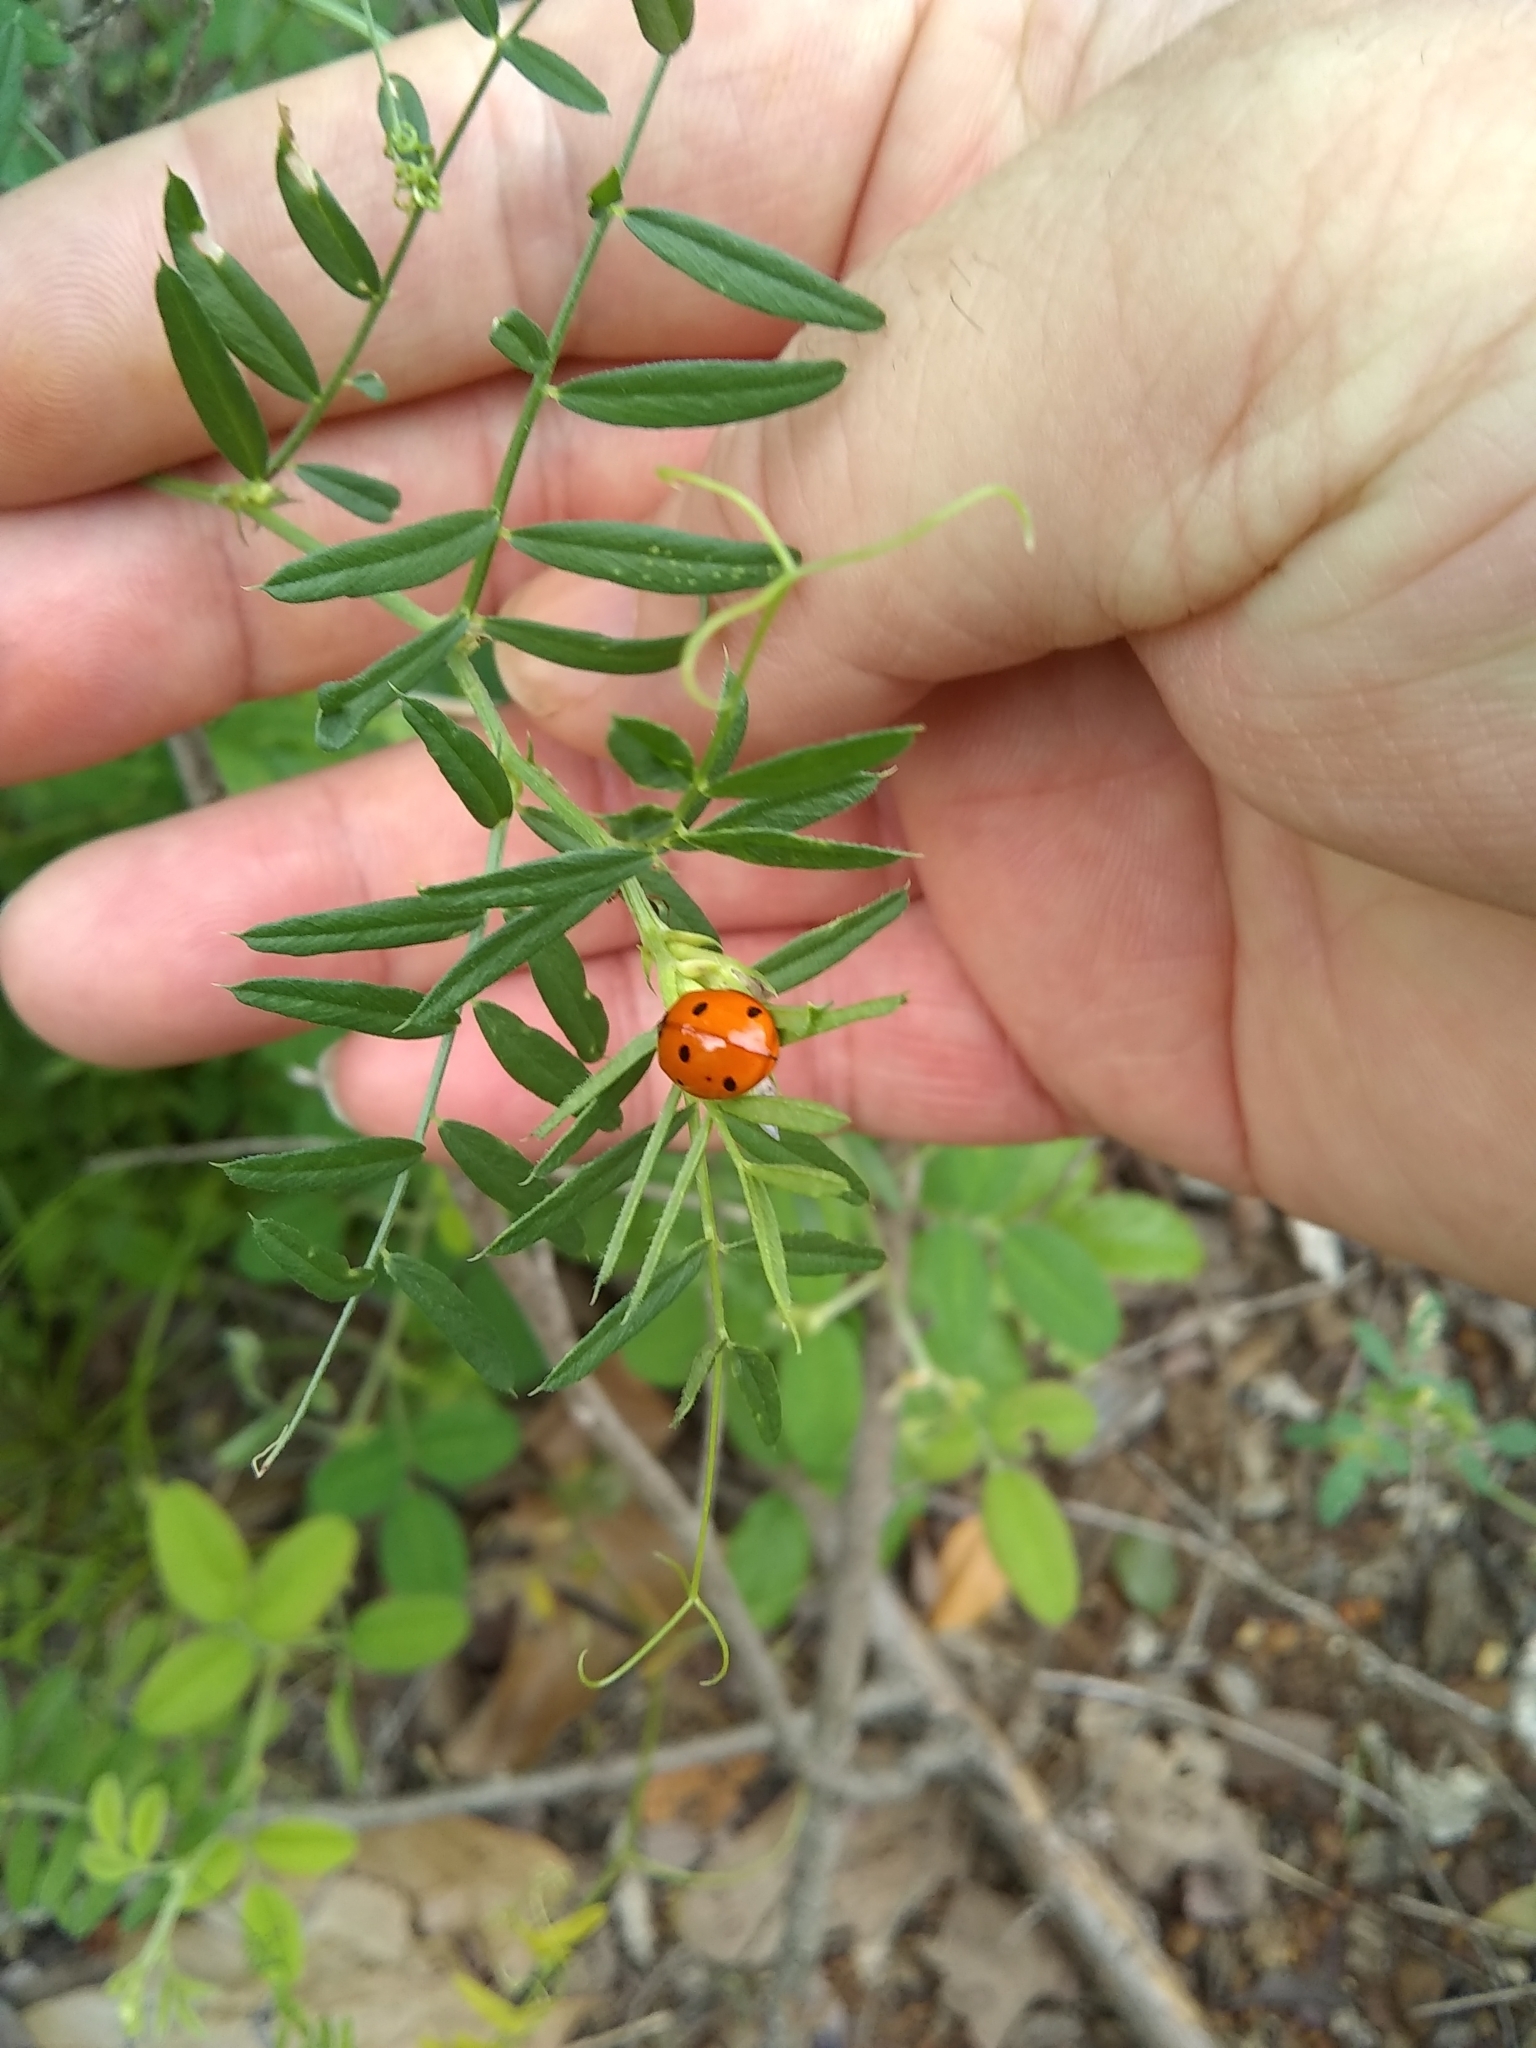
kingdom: Animalia
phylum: Arthropoda
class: Insecta
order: Coleoptera
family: Coccinellidae
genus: Coccinella
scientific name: Coccinella septempunctata
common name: Sevenspotted lady beetle
